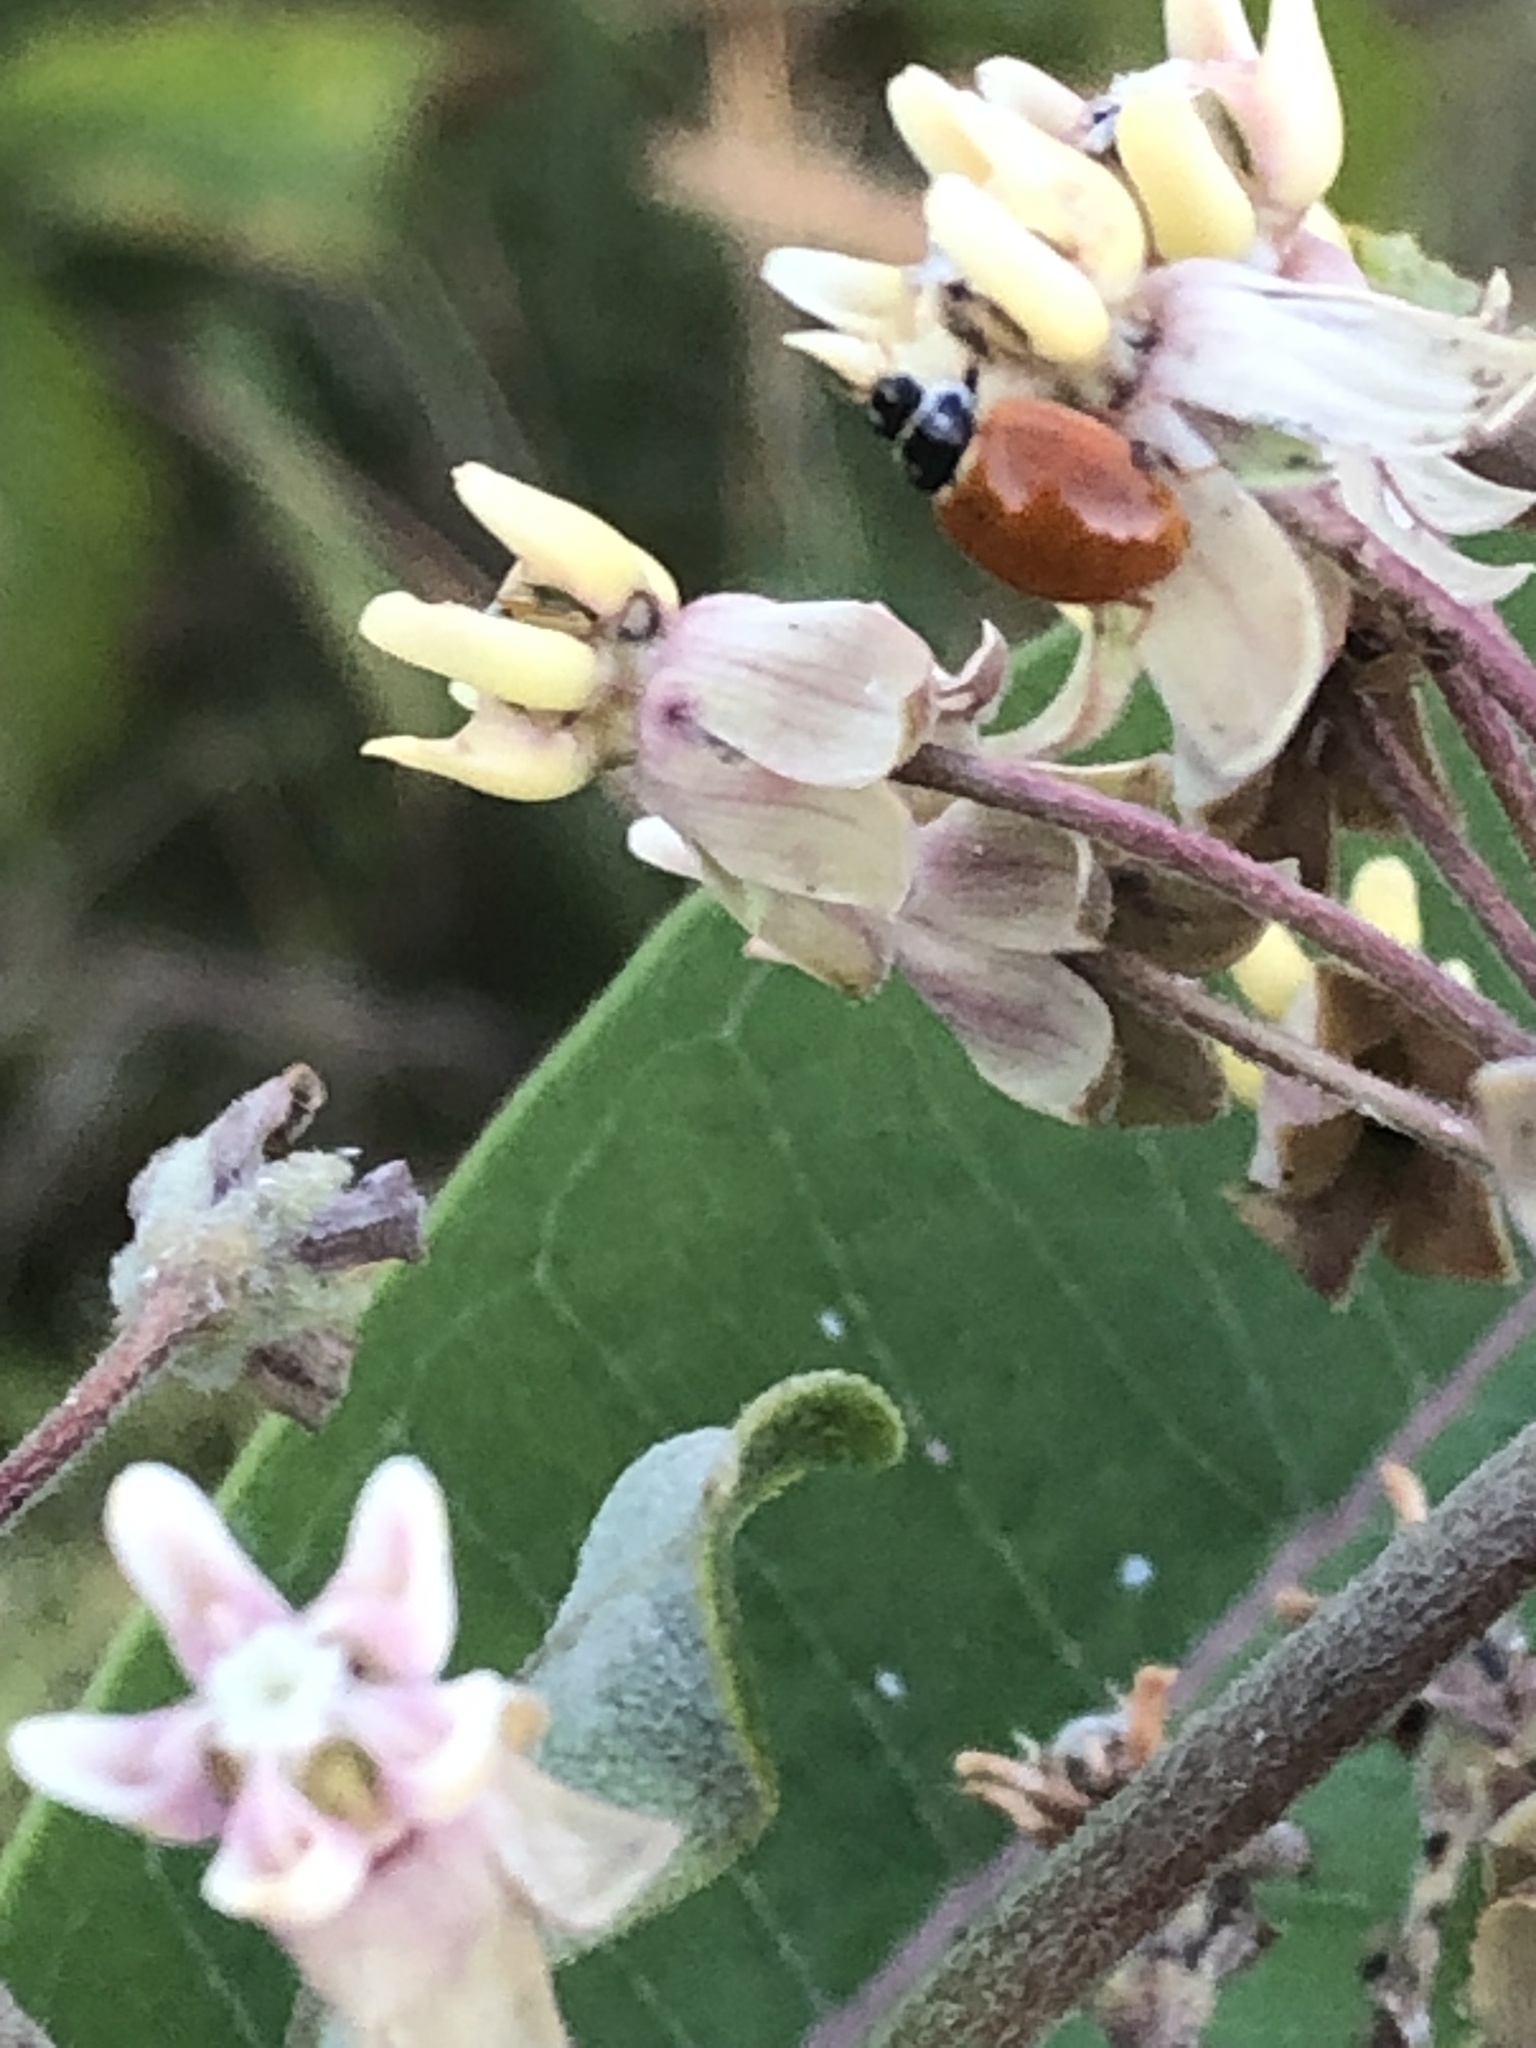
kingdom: Animalia
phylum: Arthropoda
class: Insecta
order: Coleoptera
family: Coccinellidae
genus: Cycloneda
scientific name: Cycloneda munda
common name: Polished lady beetle
